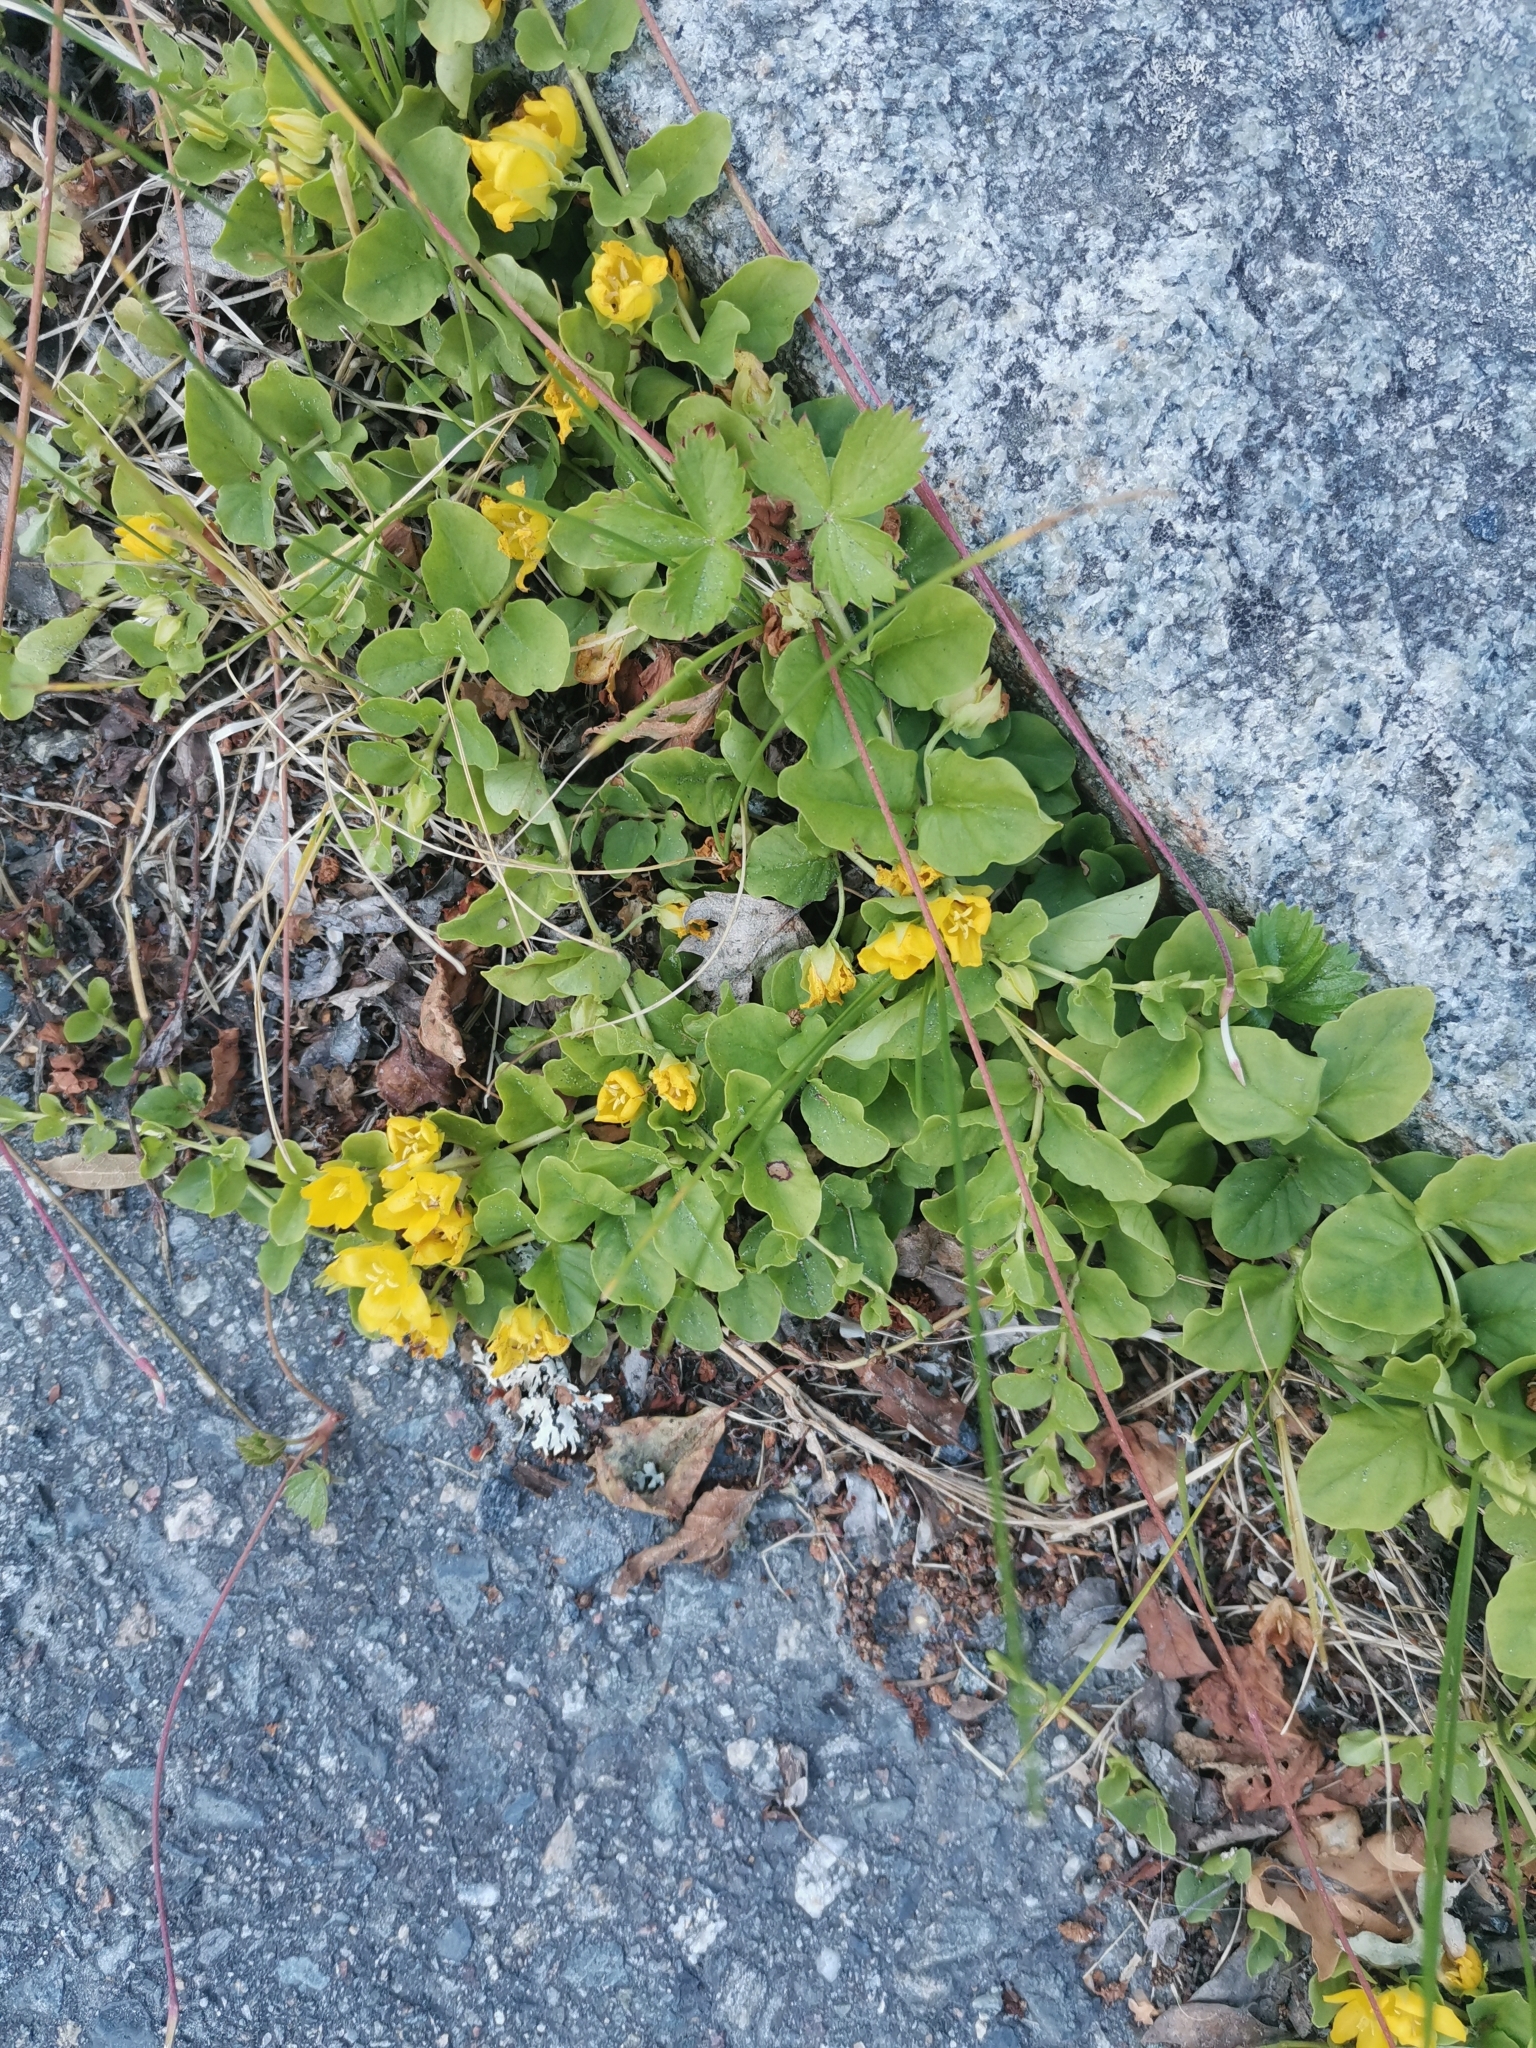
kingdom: Plantae
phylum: Tracheophyta
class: Magnoliopsida
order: Ericales
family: Primulaceae
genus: Lysimachia
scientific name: Lysimachia nummularia
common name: Moneywort
